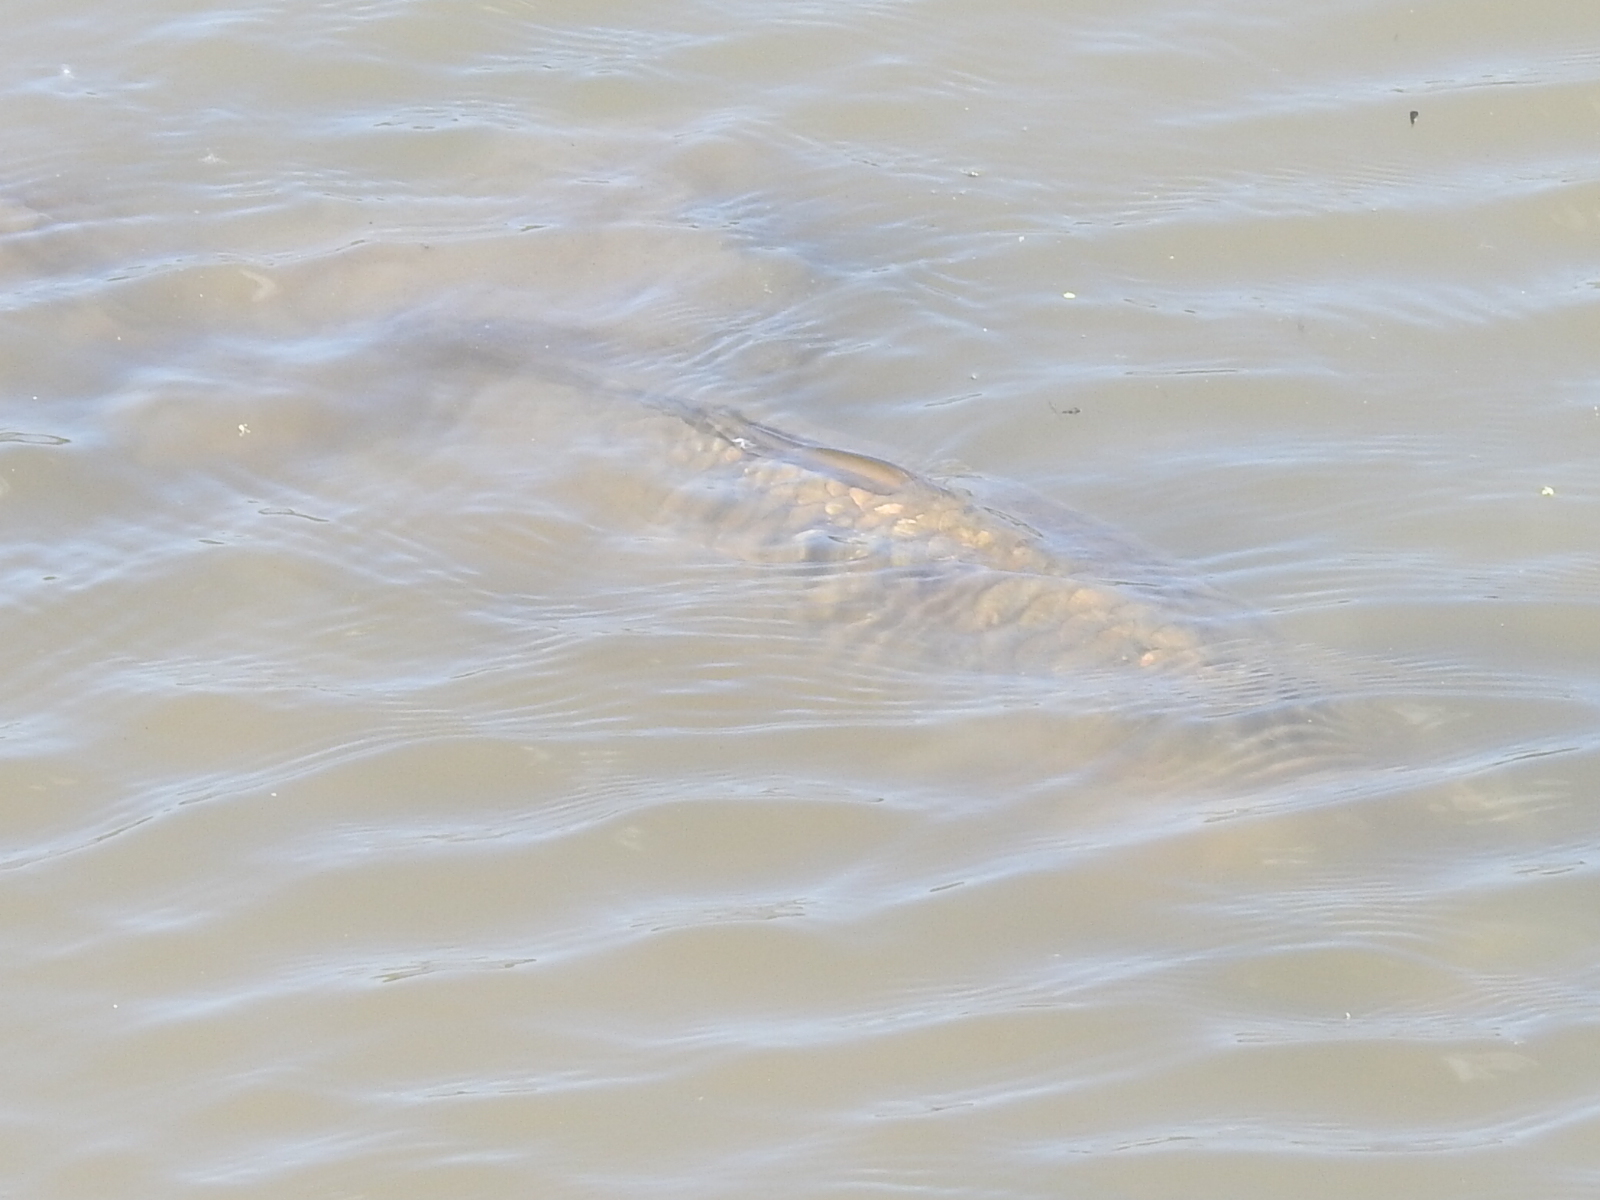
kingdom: Animalia
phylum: Chordata
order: Cypriniformes
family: Cyprinidae
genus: Cyprinus
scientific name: Cyprinus carpio
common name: Common carp
